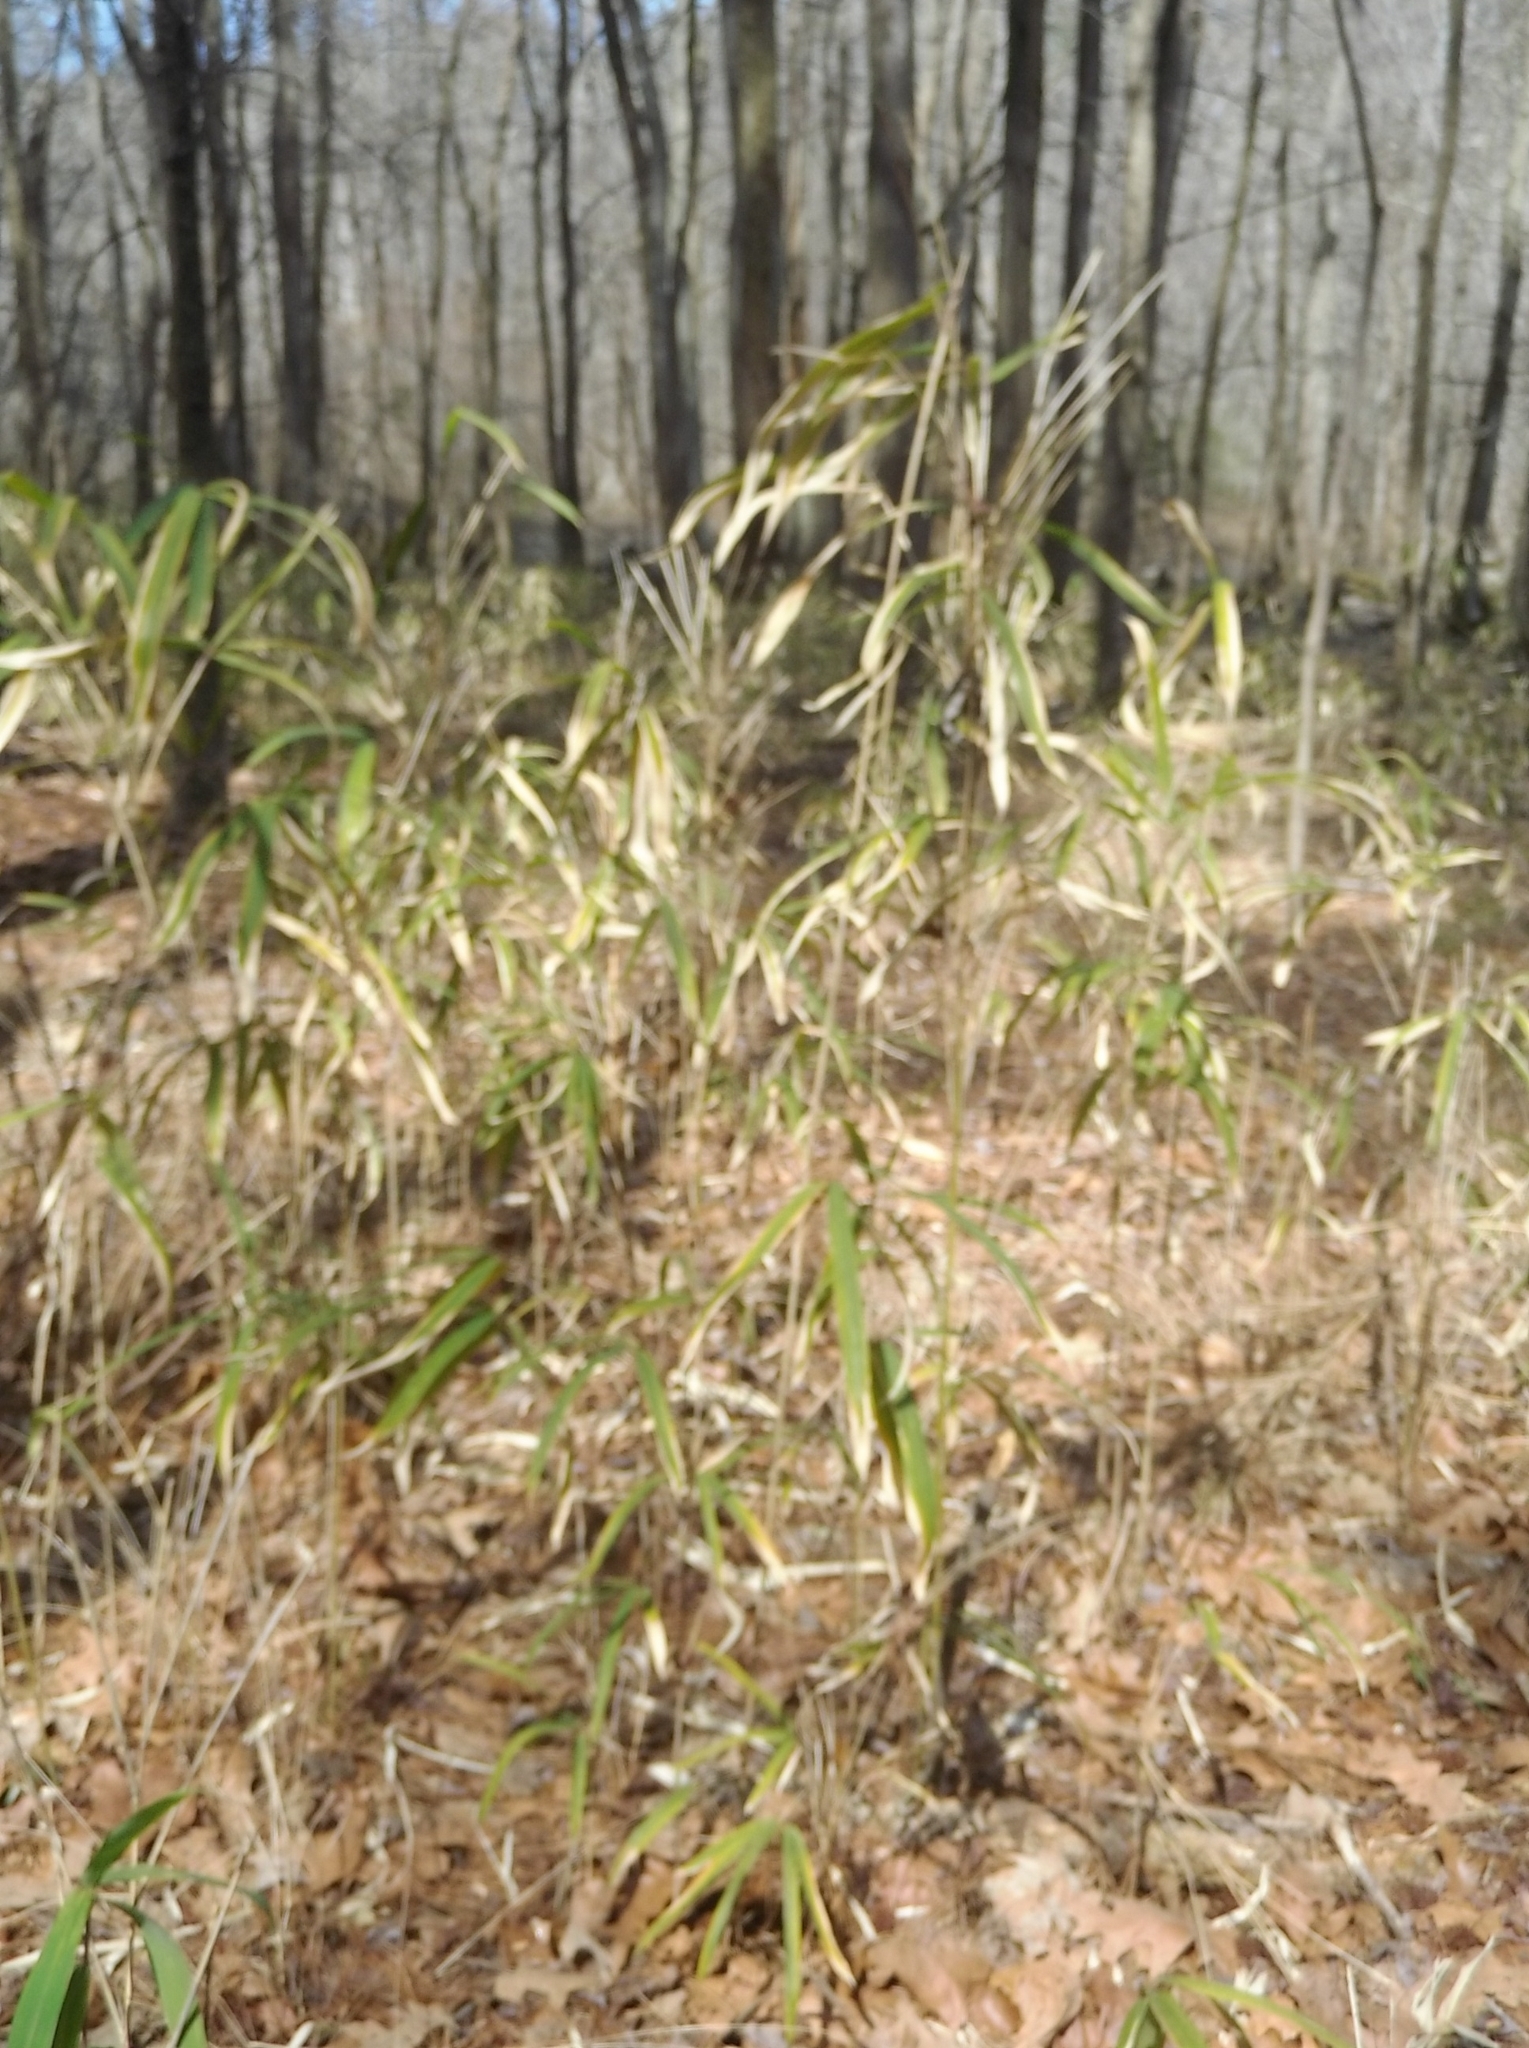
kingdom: Plantae
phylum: Tracheophyta
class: Liliopsida
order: Poales
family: Poaceae
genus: Arundinaria
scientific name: Arundinaria tecta
